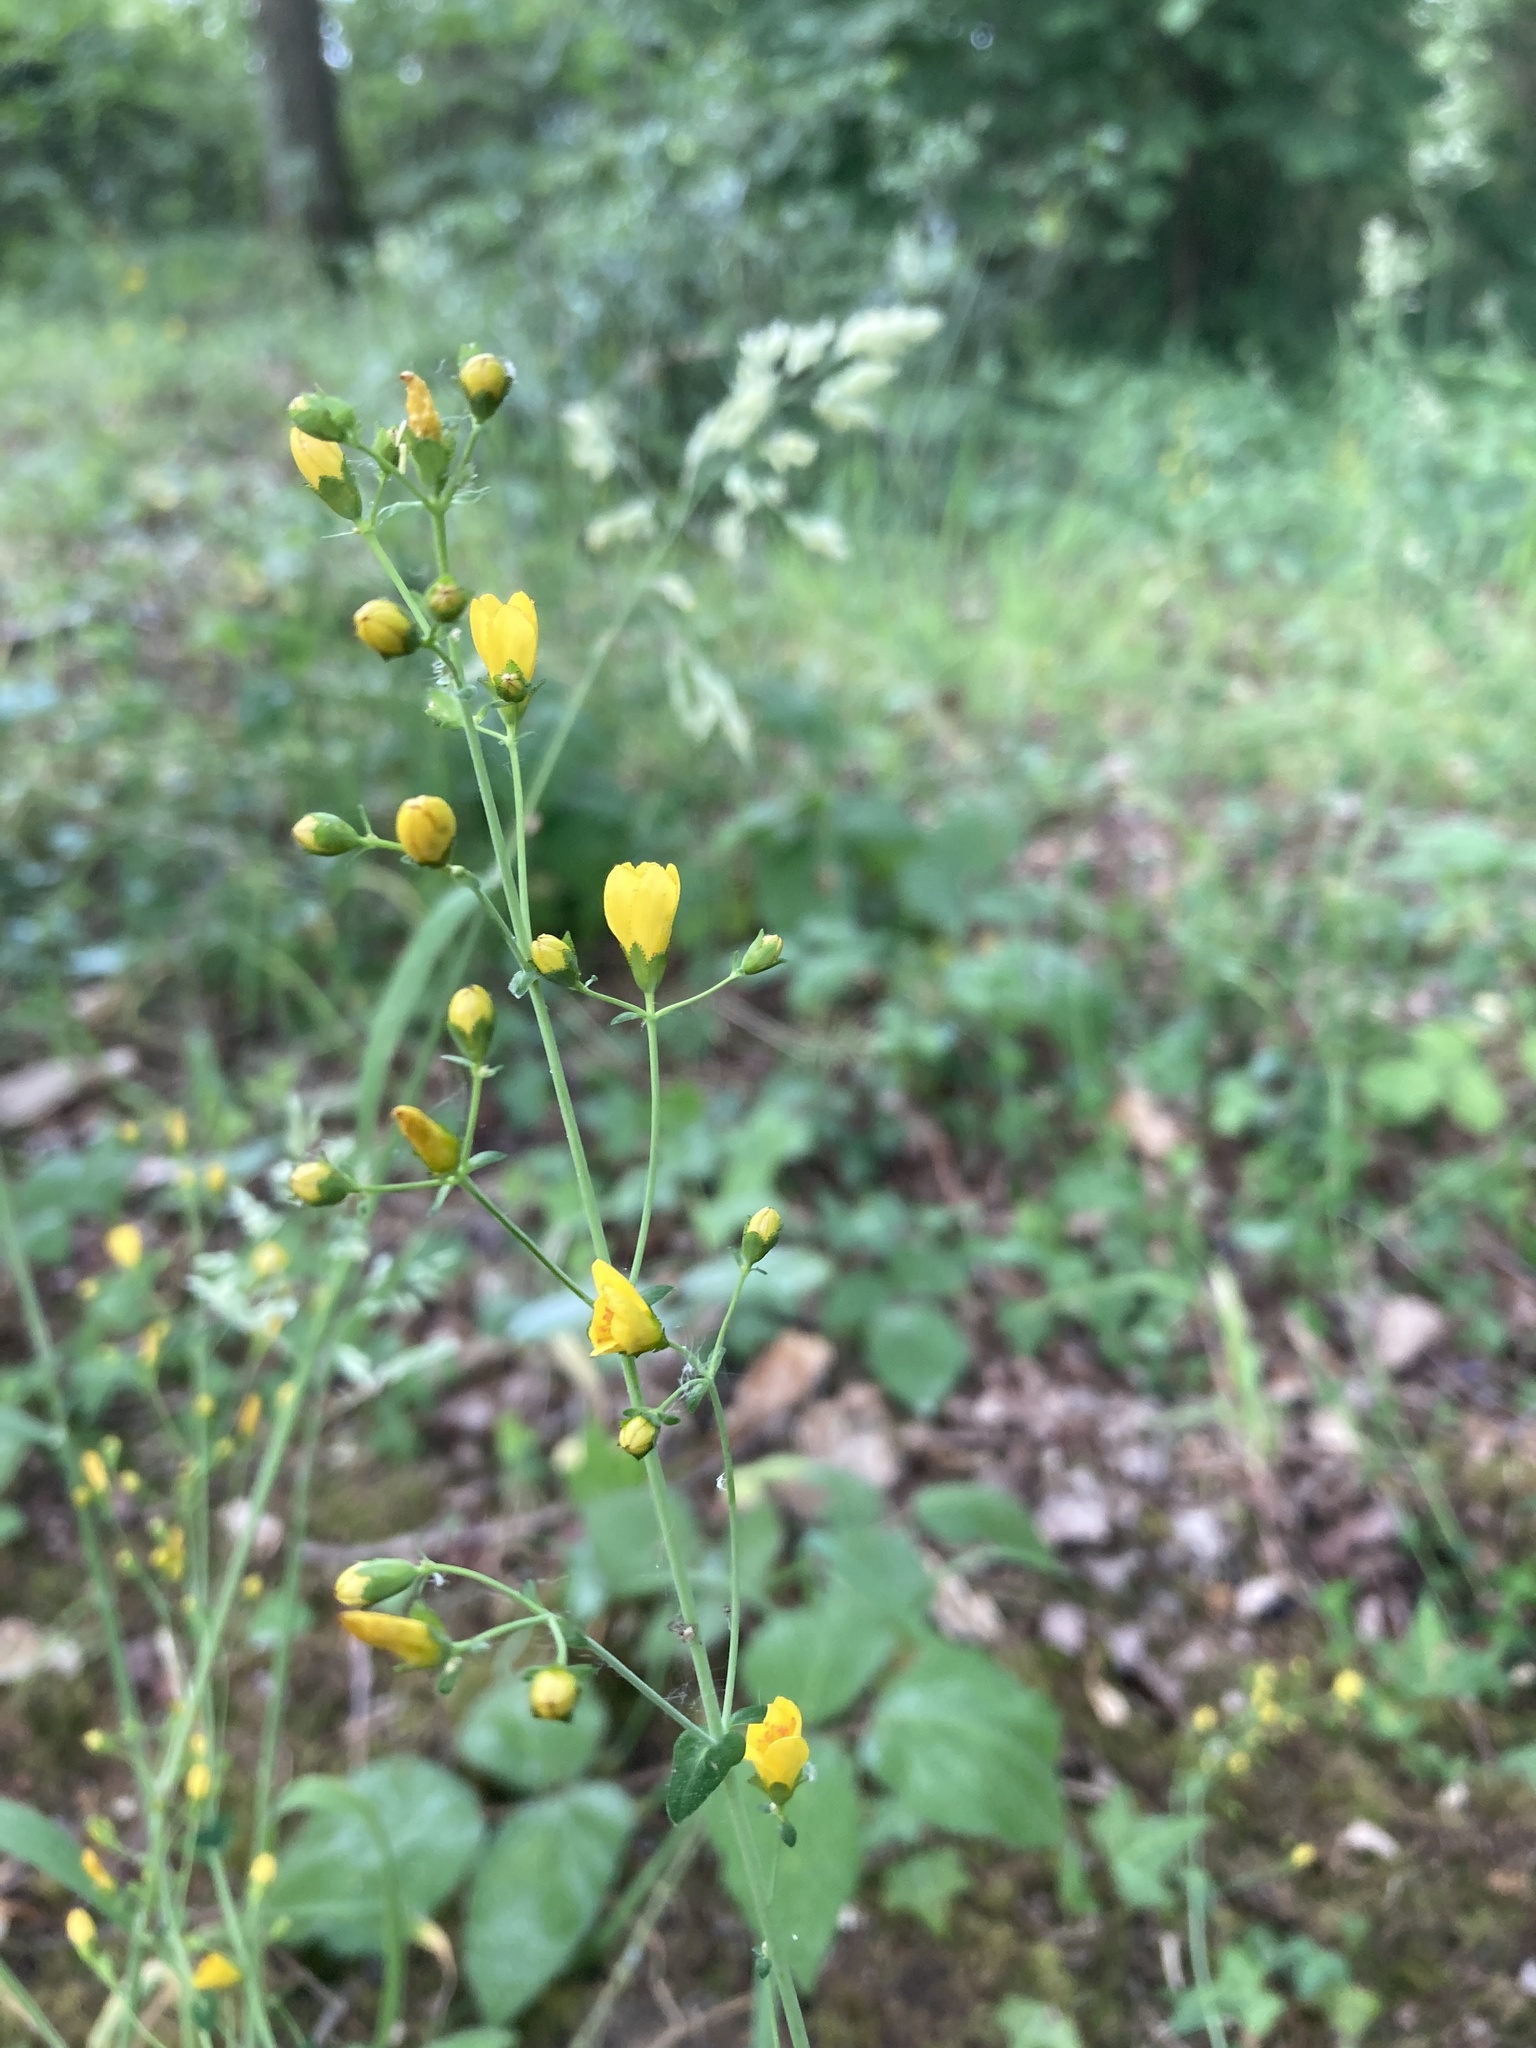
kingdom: Plantae
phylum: Tracheophyta
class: Magnoliopsida
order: Malpighiales
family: Hypericaceae
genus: Hypericum
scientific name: Hypericum pulchrum
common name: Slender st. john's-wort
